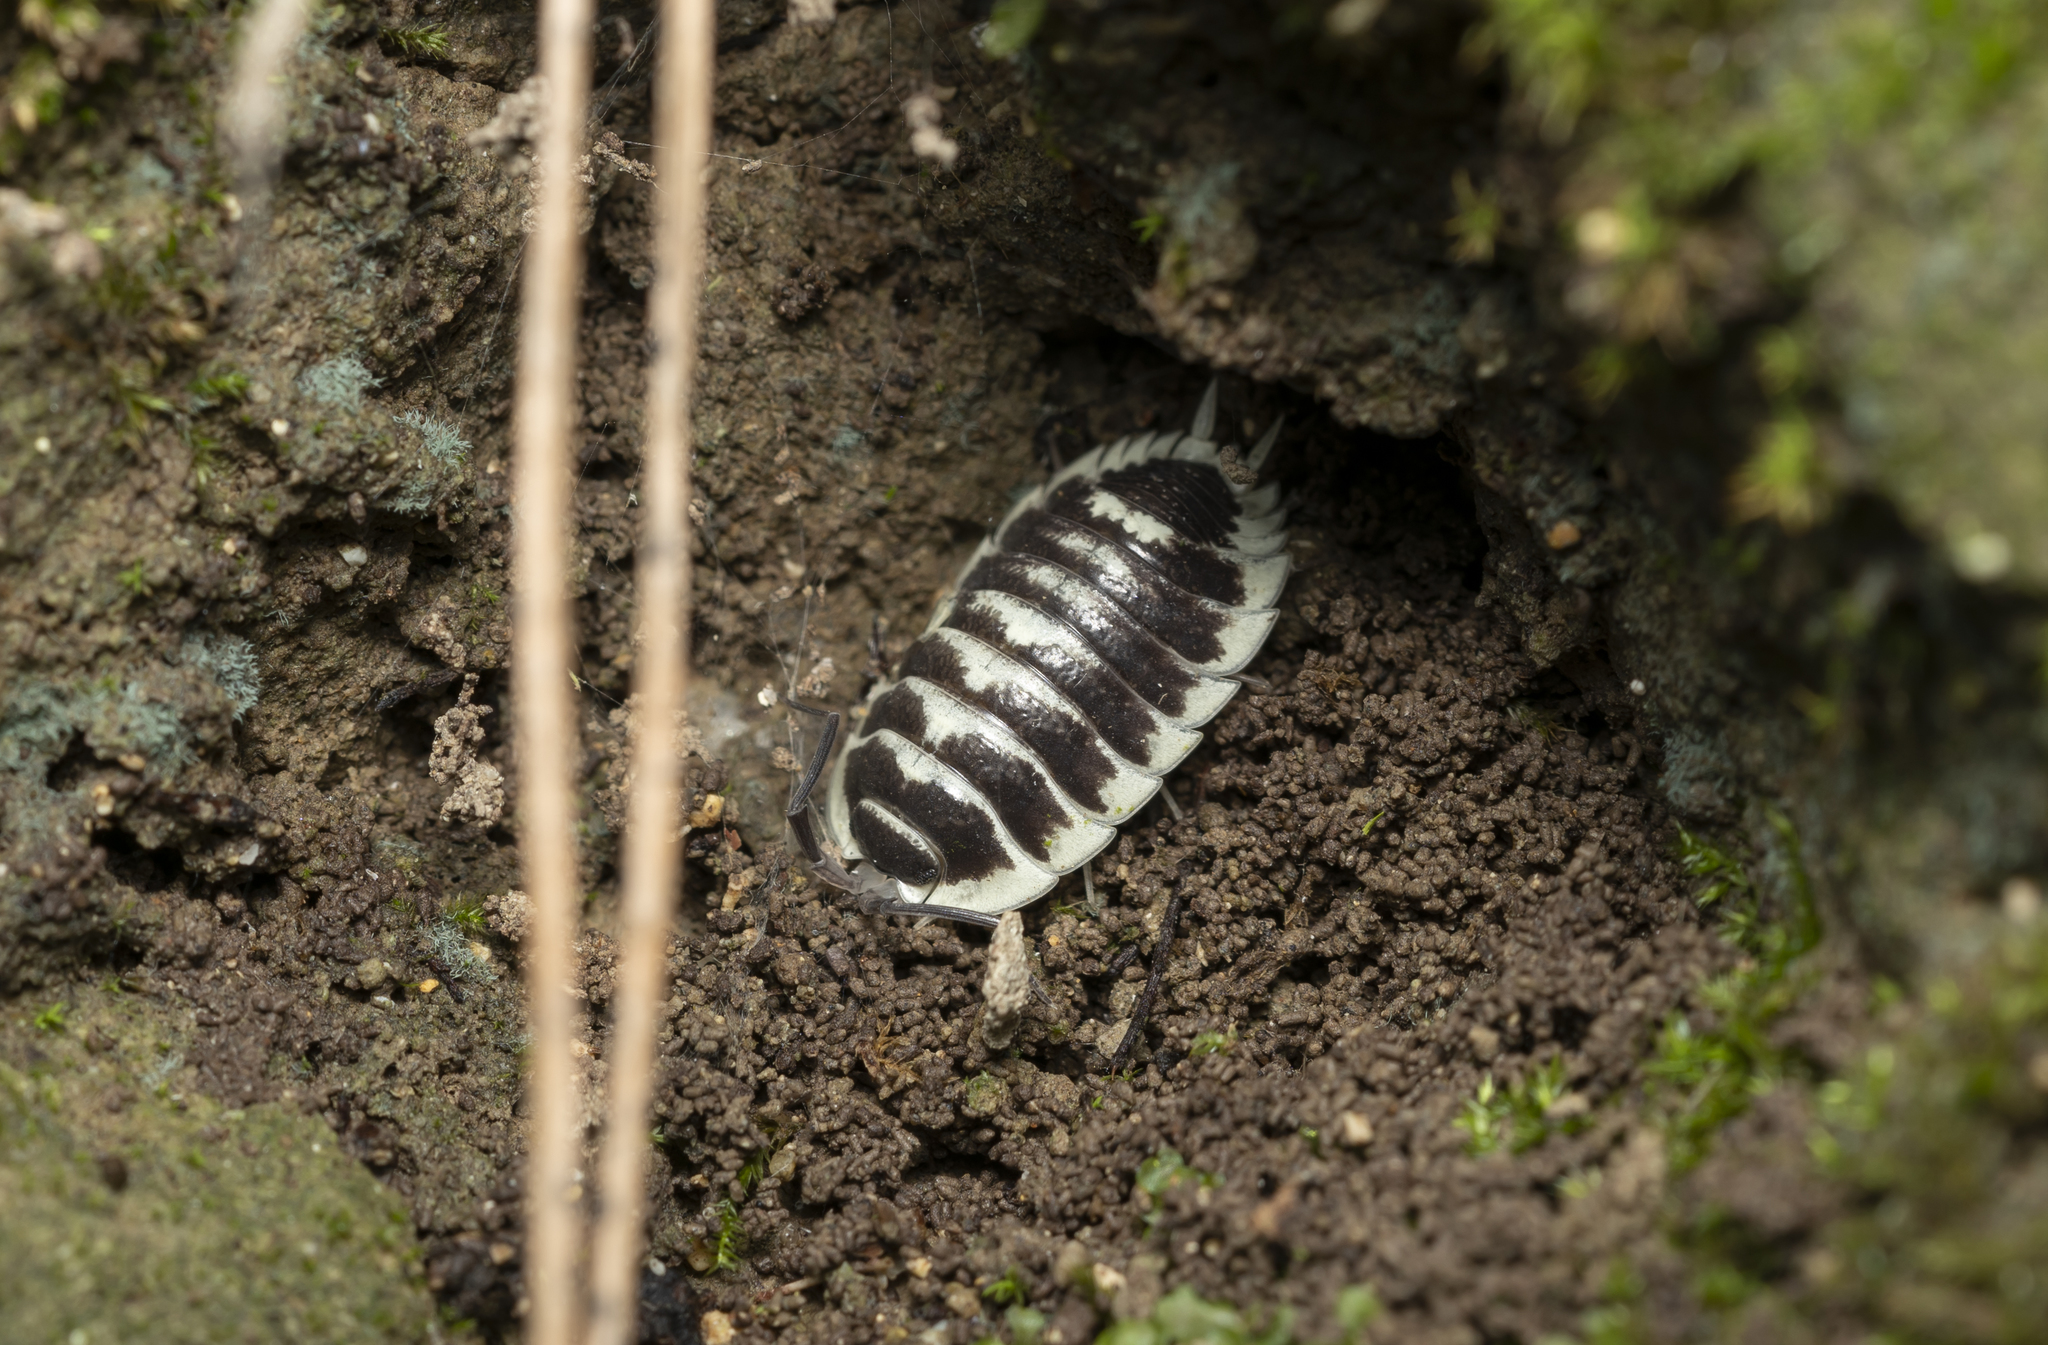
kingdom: Animalia
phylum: Arthropoda
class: Malacostraca
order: Isopoda
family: Porcellionidae
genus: Porcellio
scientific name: Porcellio flavomarginatus
